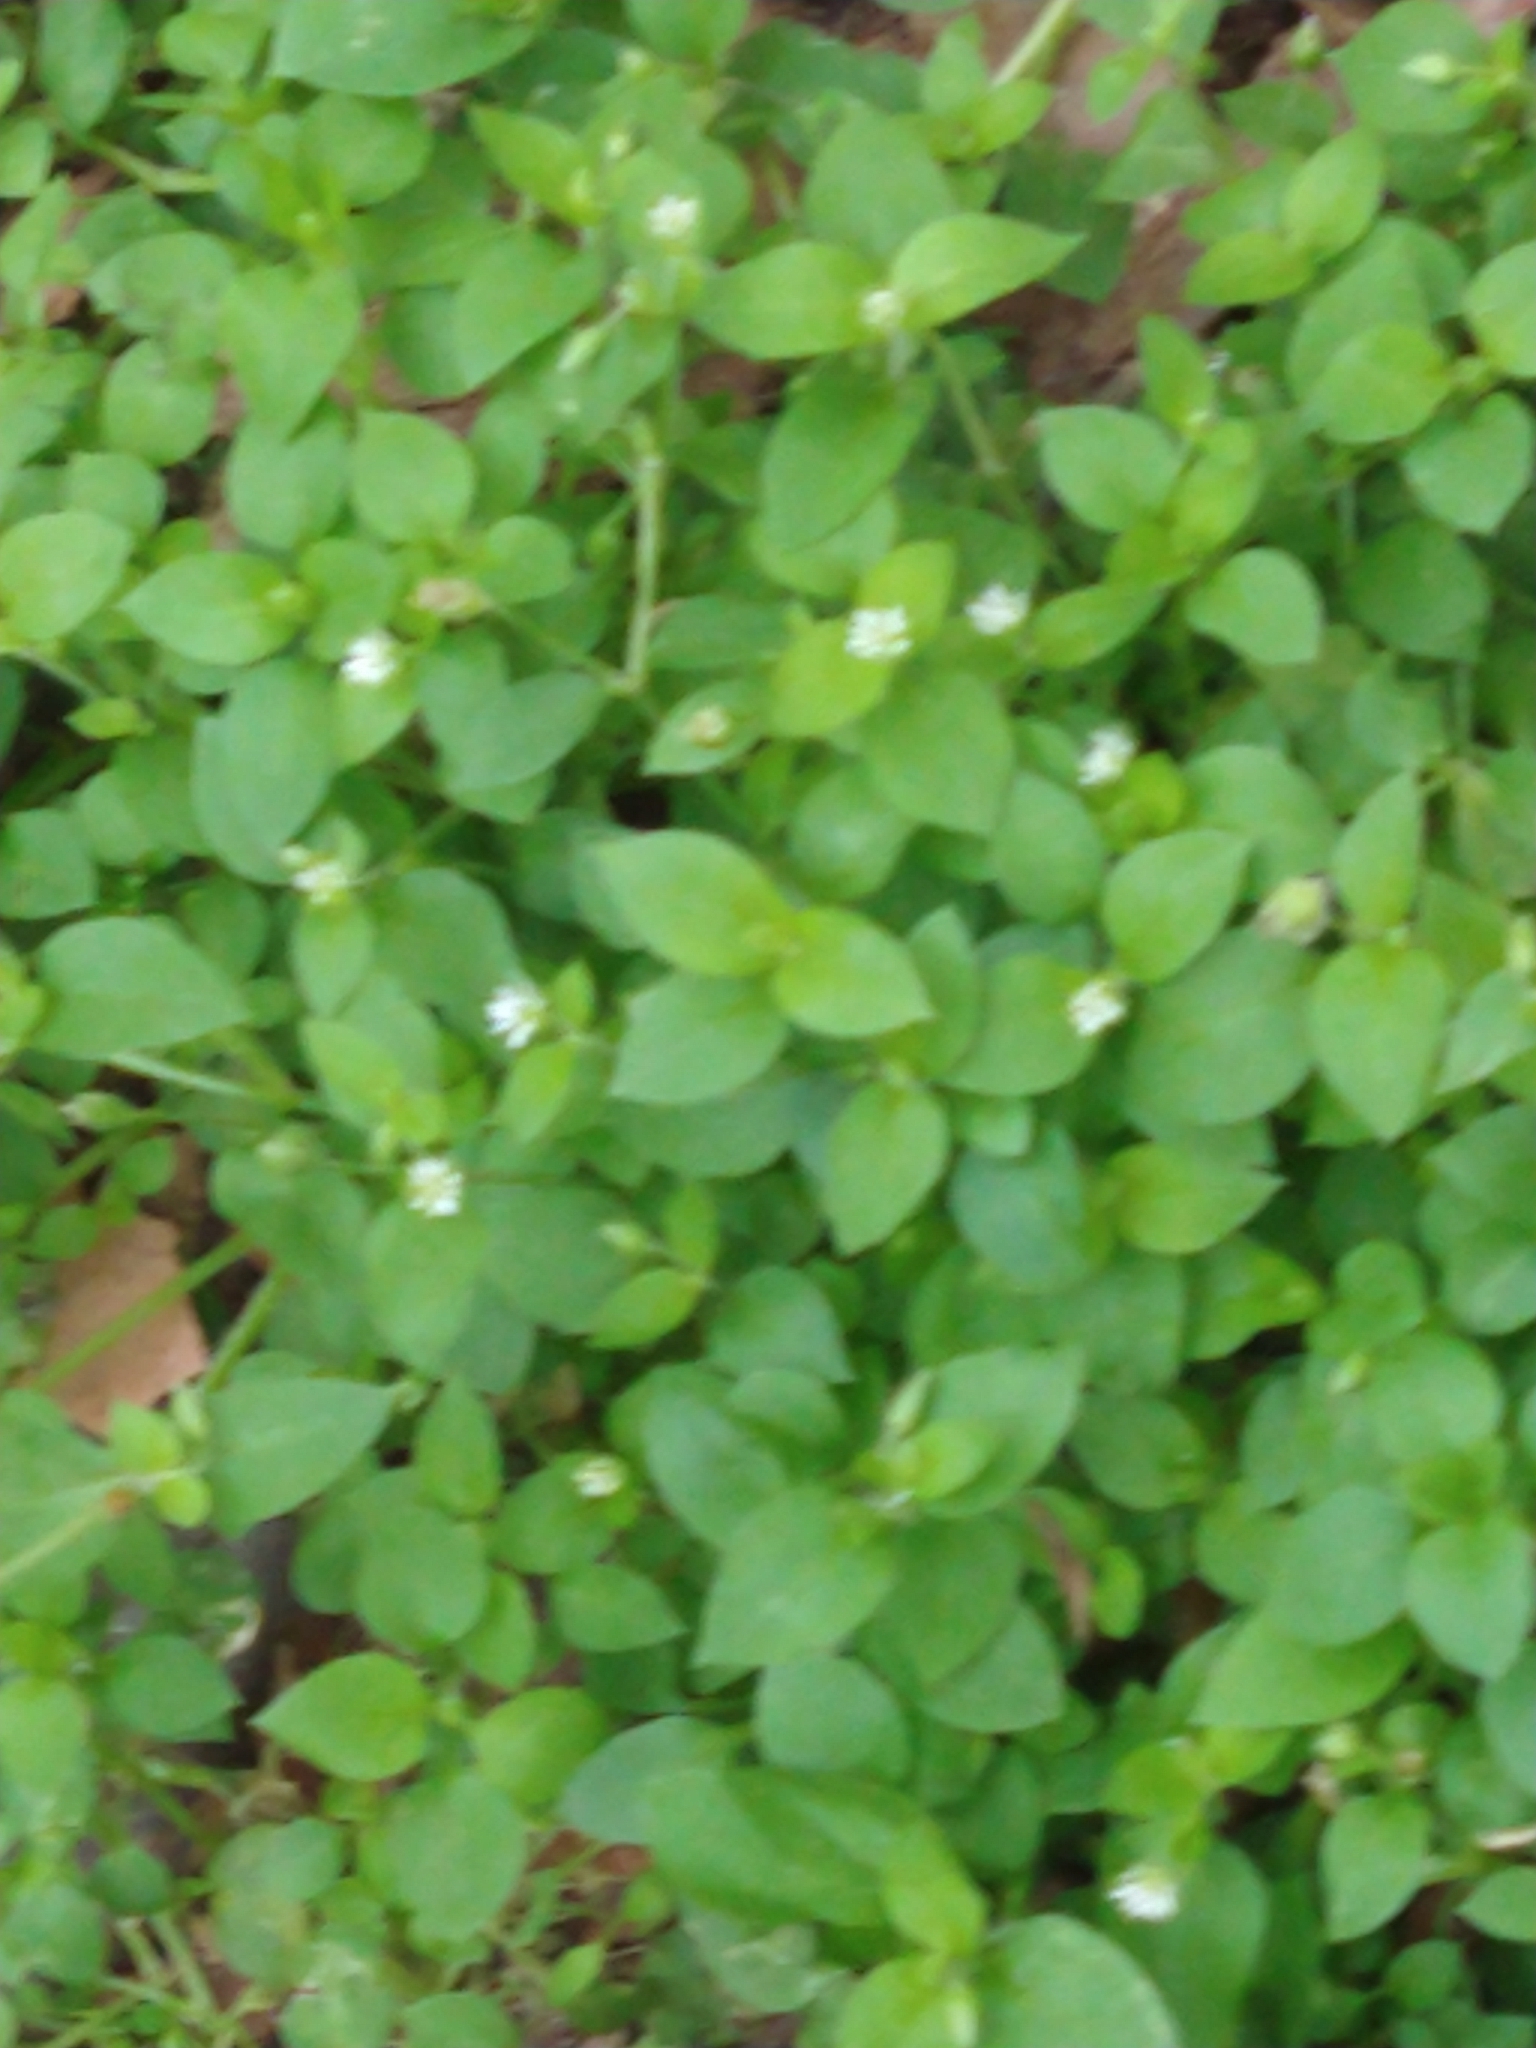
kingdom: Plantae
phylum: Tracheophyta
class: Magnoliopsida
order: Caryophyllales
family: Caryophyllaceae
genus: Stellaria
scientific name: Stellaria media
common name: Common chickweed
